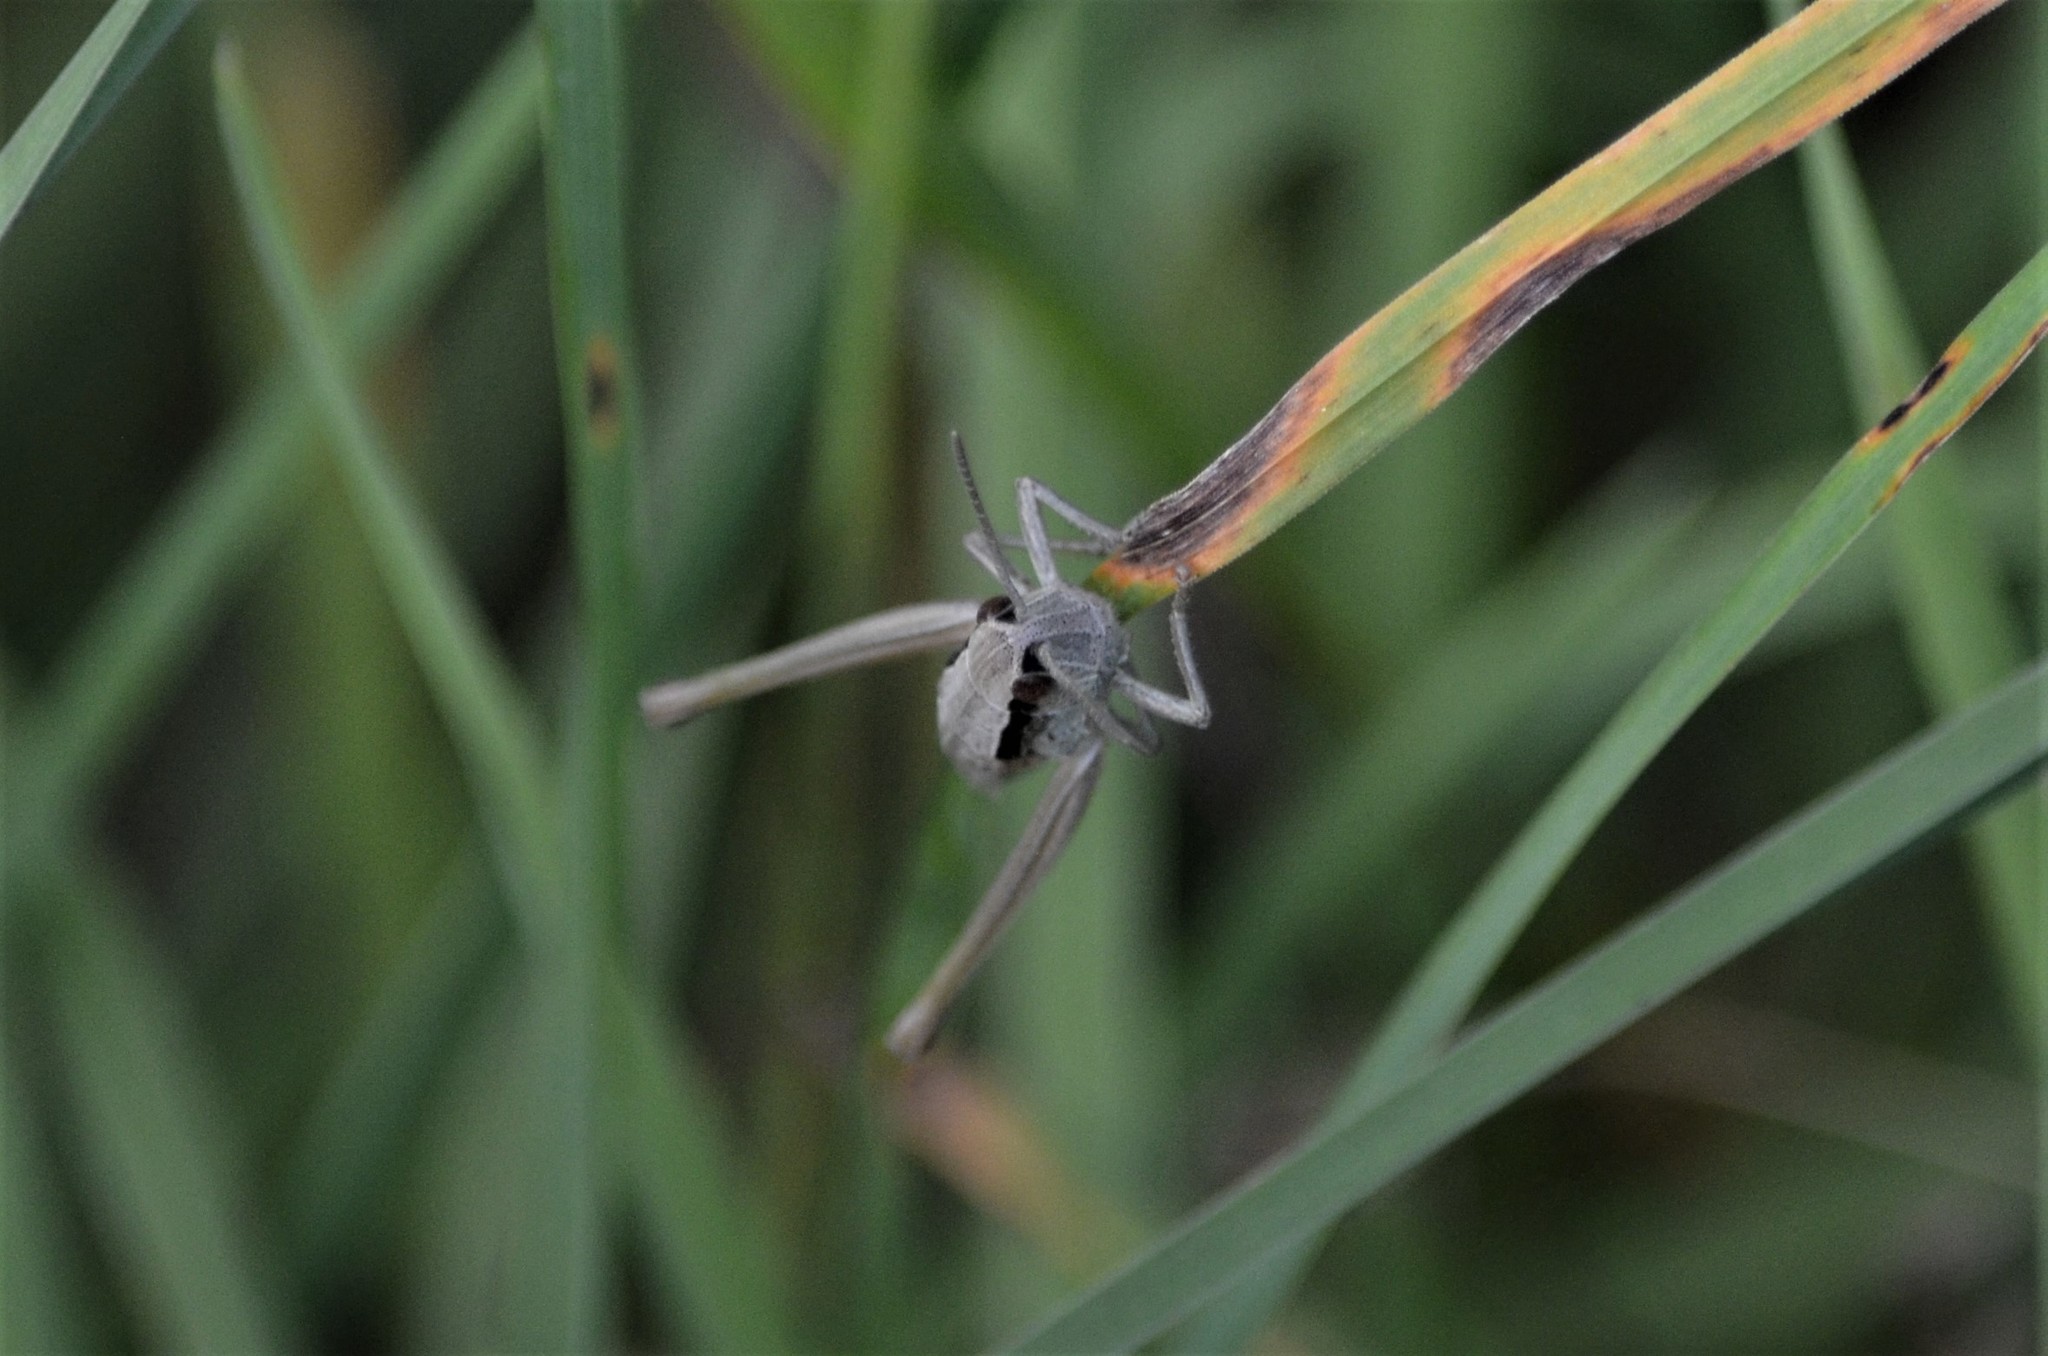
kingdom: Animalia
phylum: Arthropoda
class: Insecta
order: Orthoptera
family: Acrididae
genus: Euthystira
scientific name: Euthystira brachyptera
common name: Small gold grasshopper
